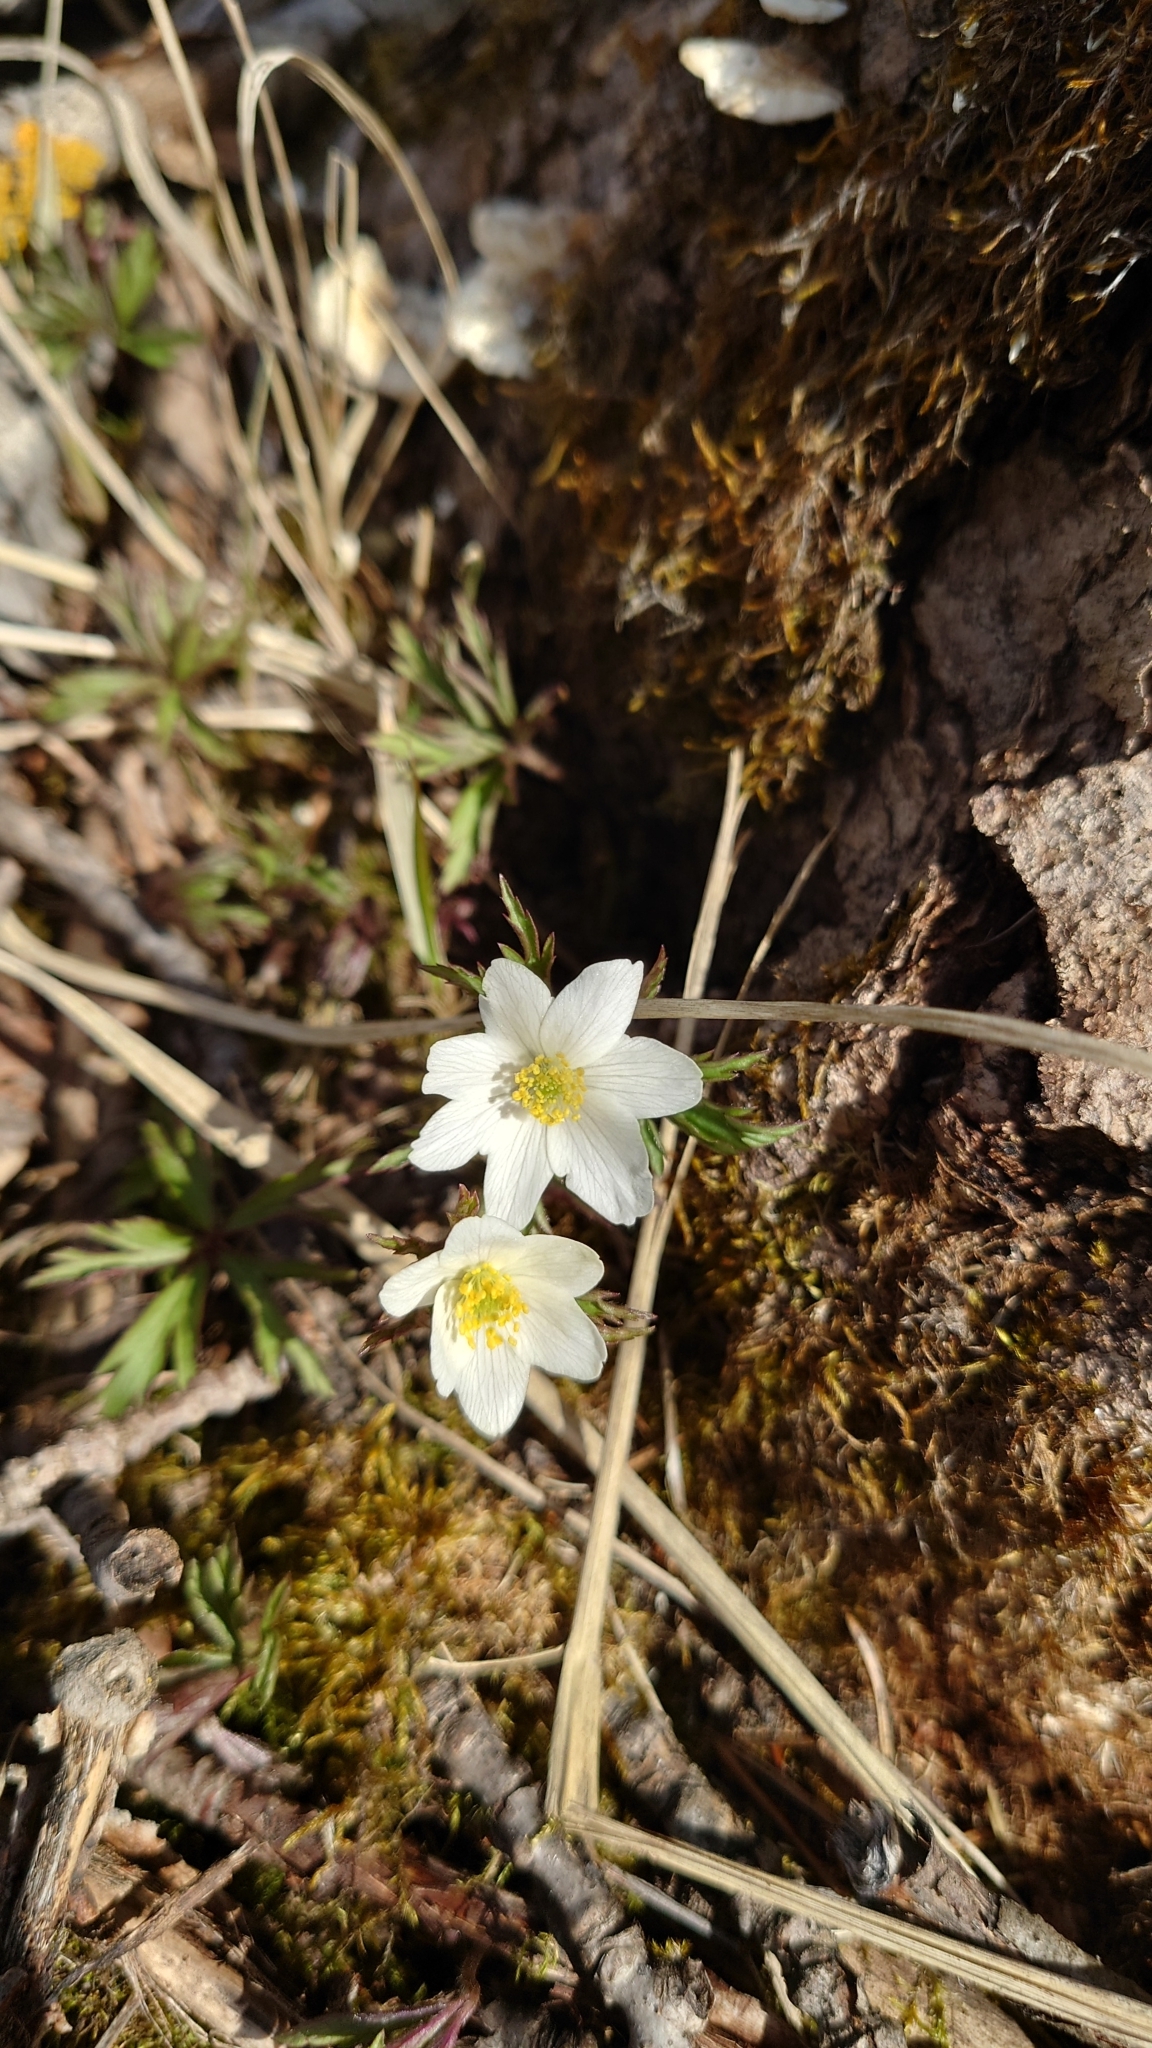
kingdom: Plantae
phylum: Tracheophyta
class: Magnoliopsida
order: Ranunculales
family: Ranunculaceae
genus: Anemone
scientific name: Anemone nemorosa
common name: Wood anemone
